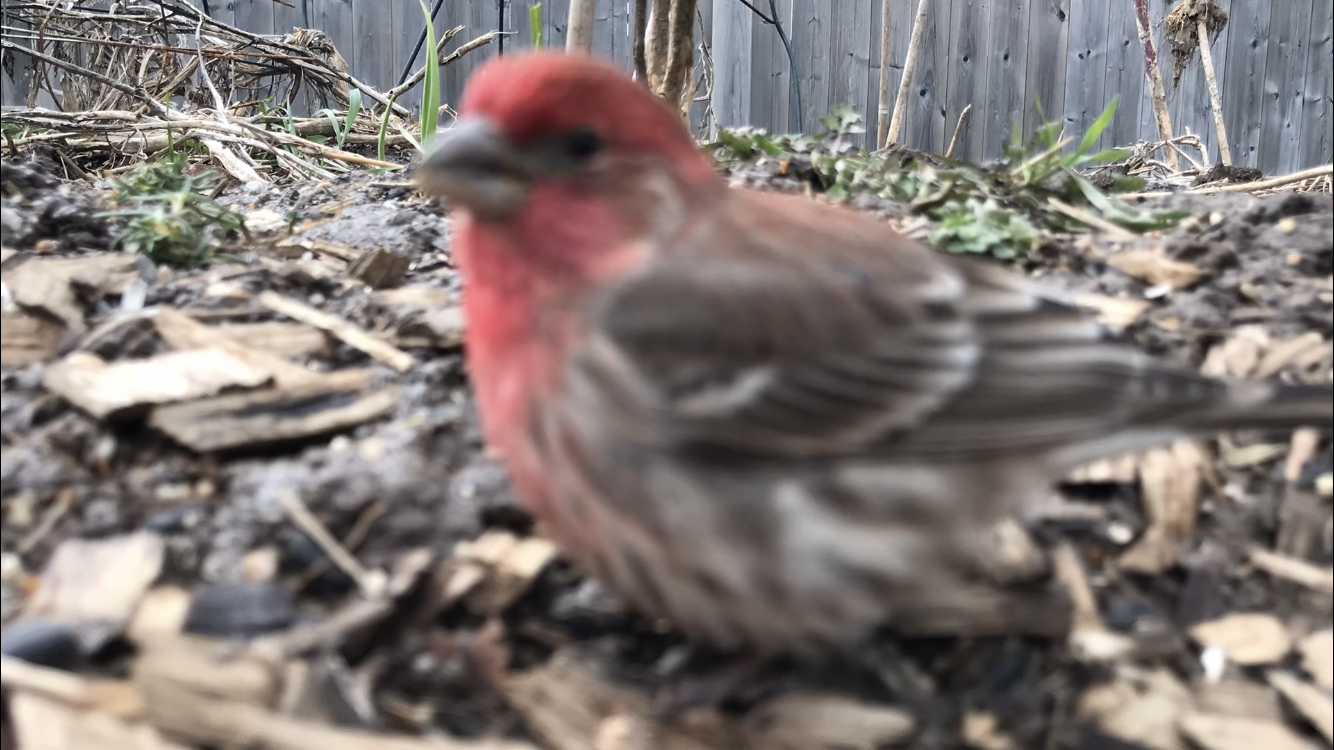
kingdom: Animalia
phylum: Chordata
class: Aves
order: Passeriformes
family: Fringillidae
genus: Haemorhous
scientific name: Haemorhous mexicanus
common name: House finch
